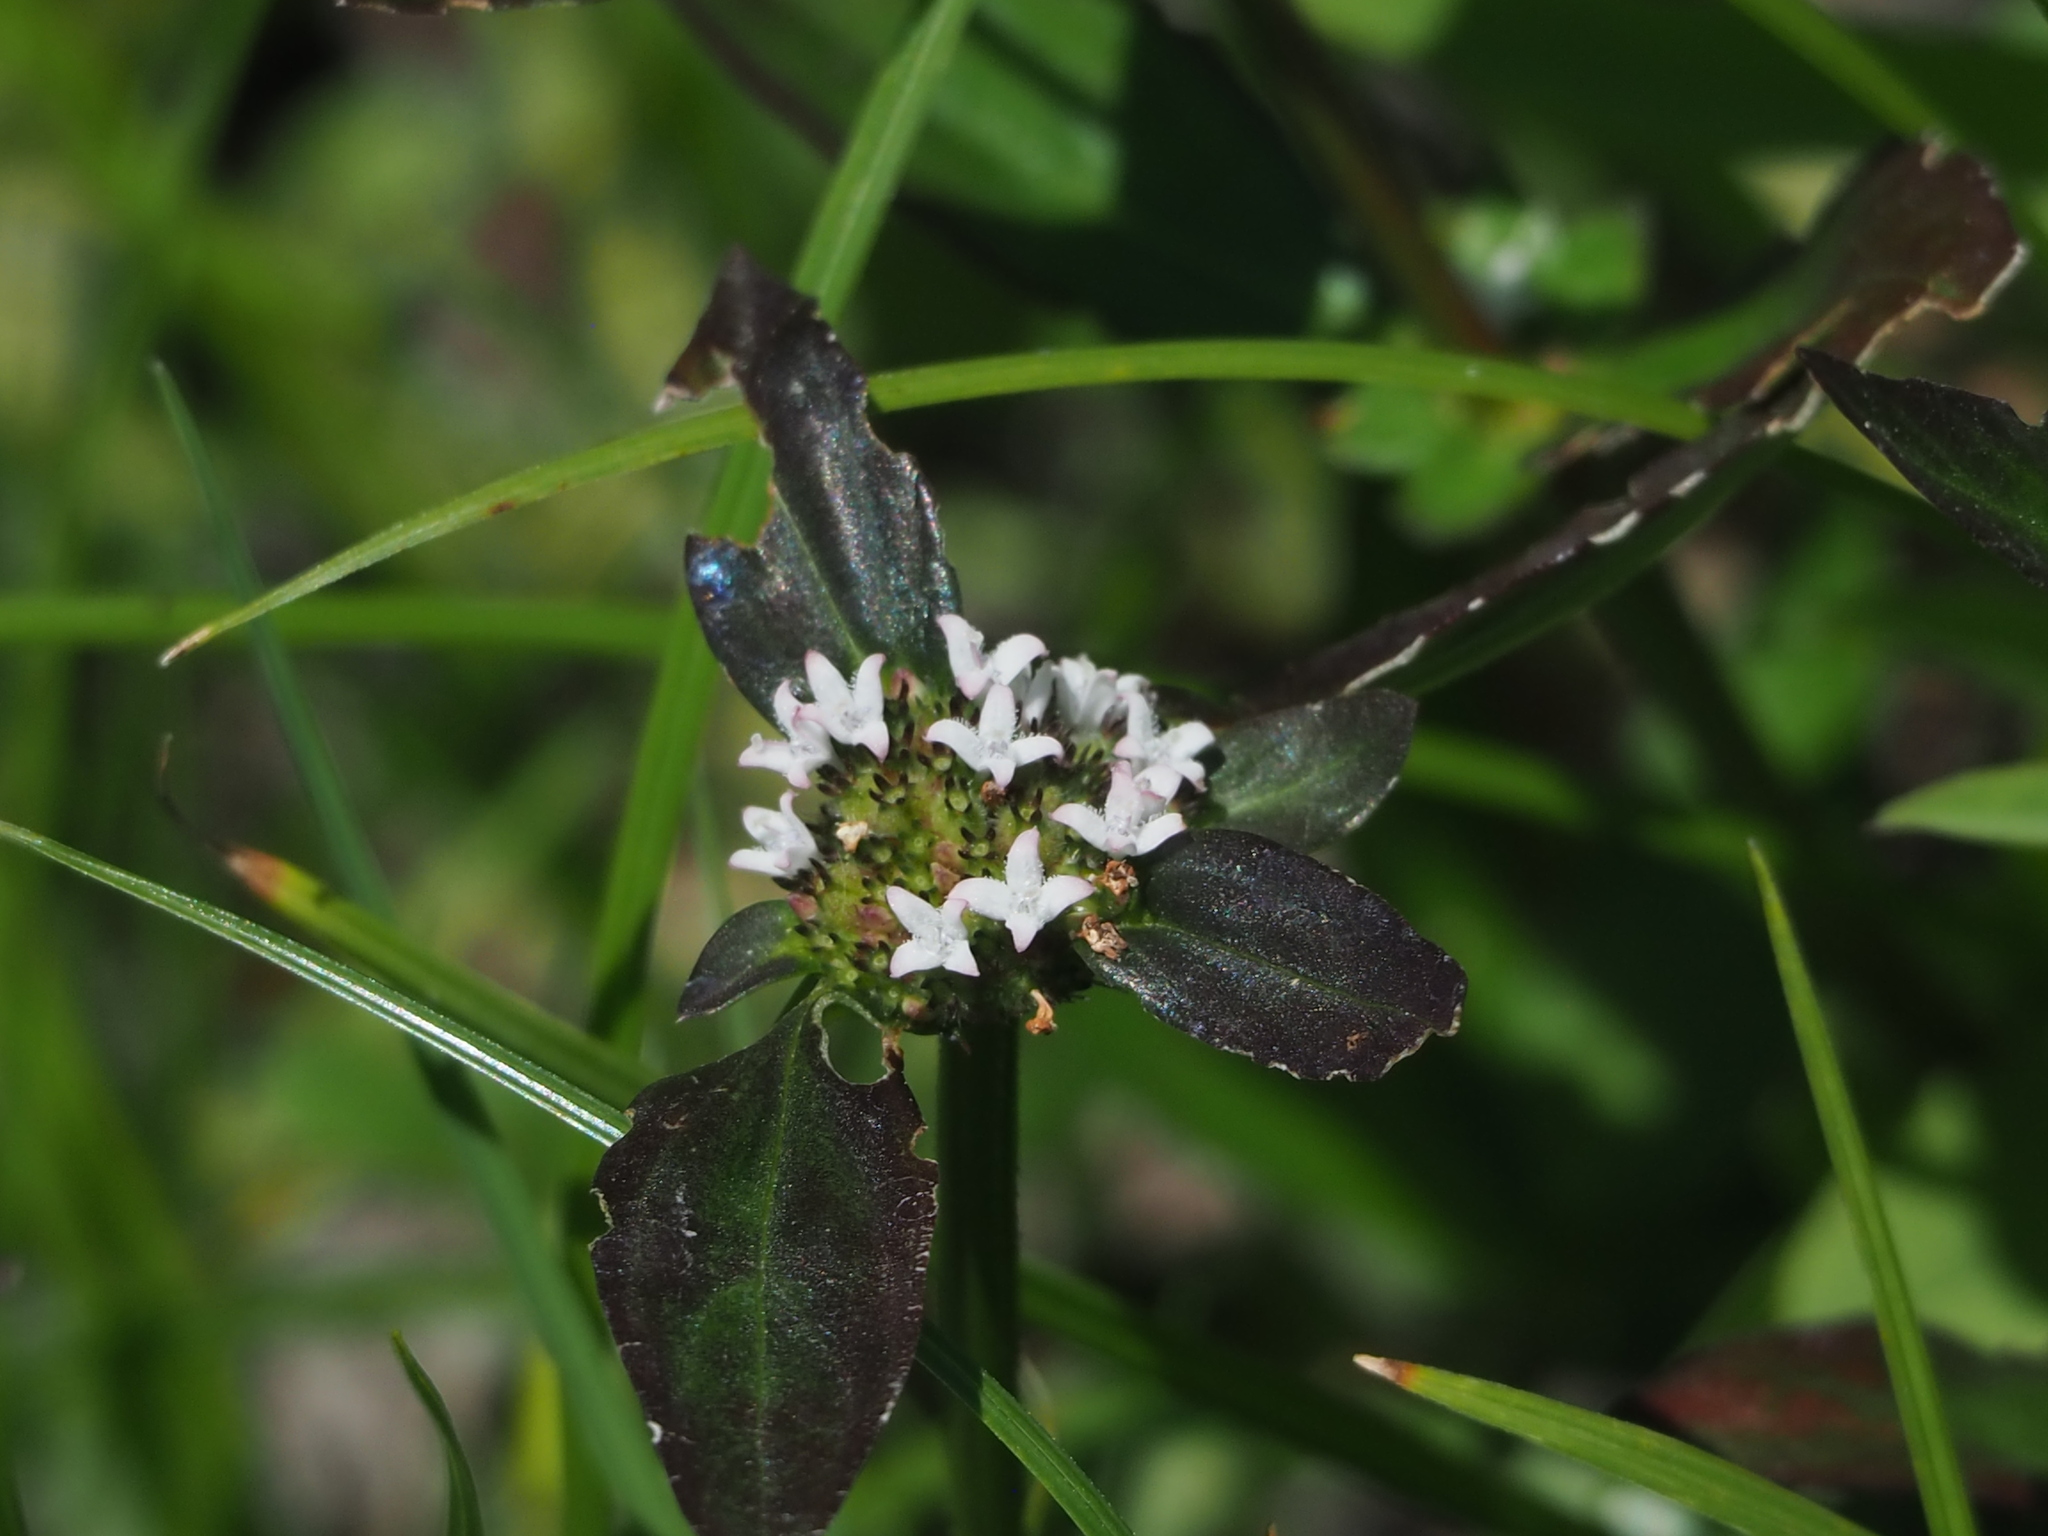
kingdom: Plantae
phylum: Tracheophyta
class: Magnoliopsida
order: Gentianales
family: Rubiaceae
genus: Spermacoce
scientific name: Spermacoce remota
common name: Woodland false buttonweed
